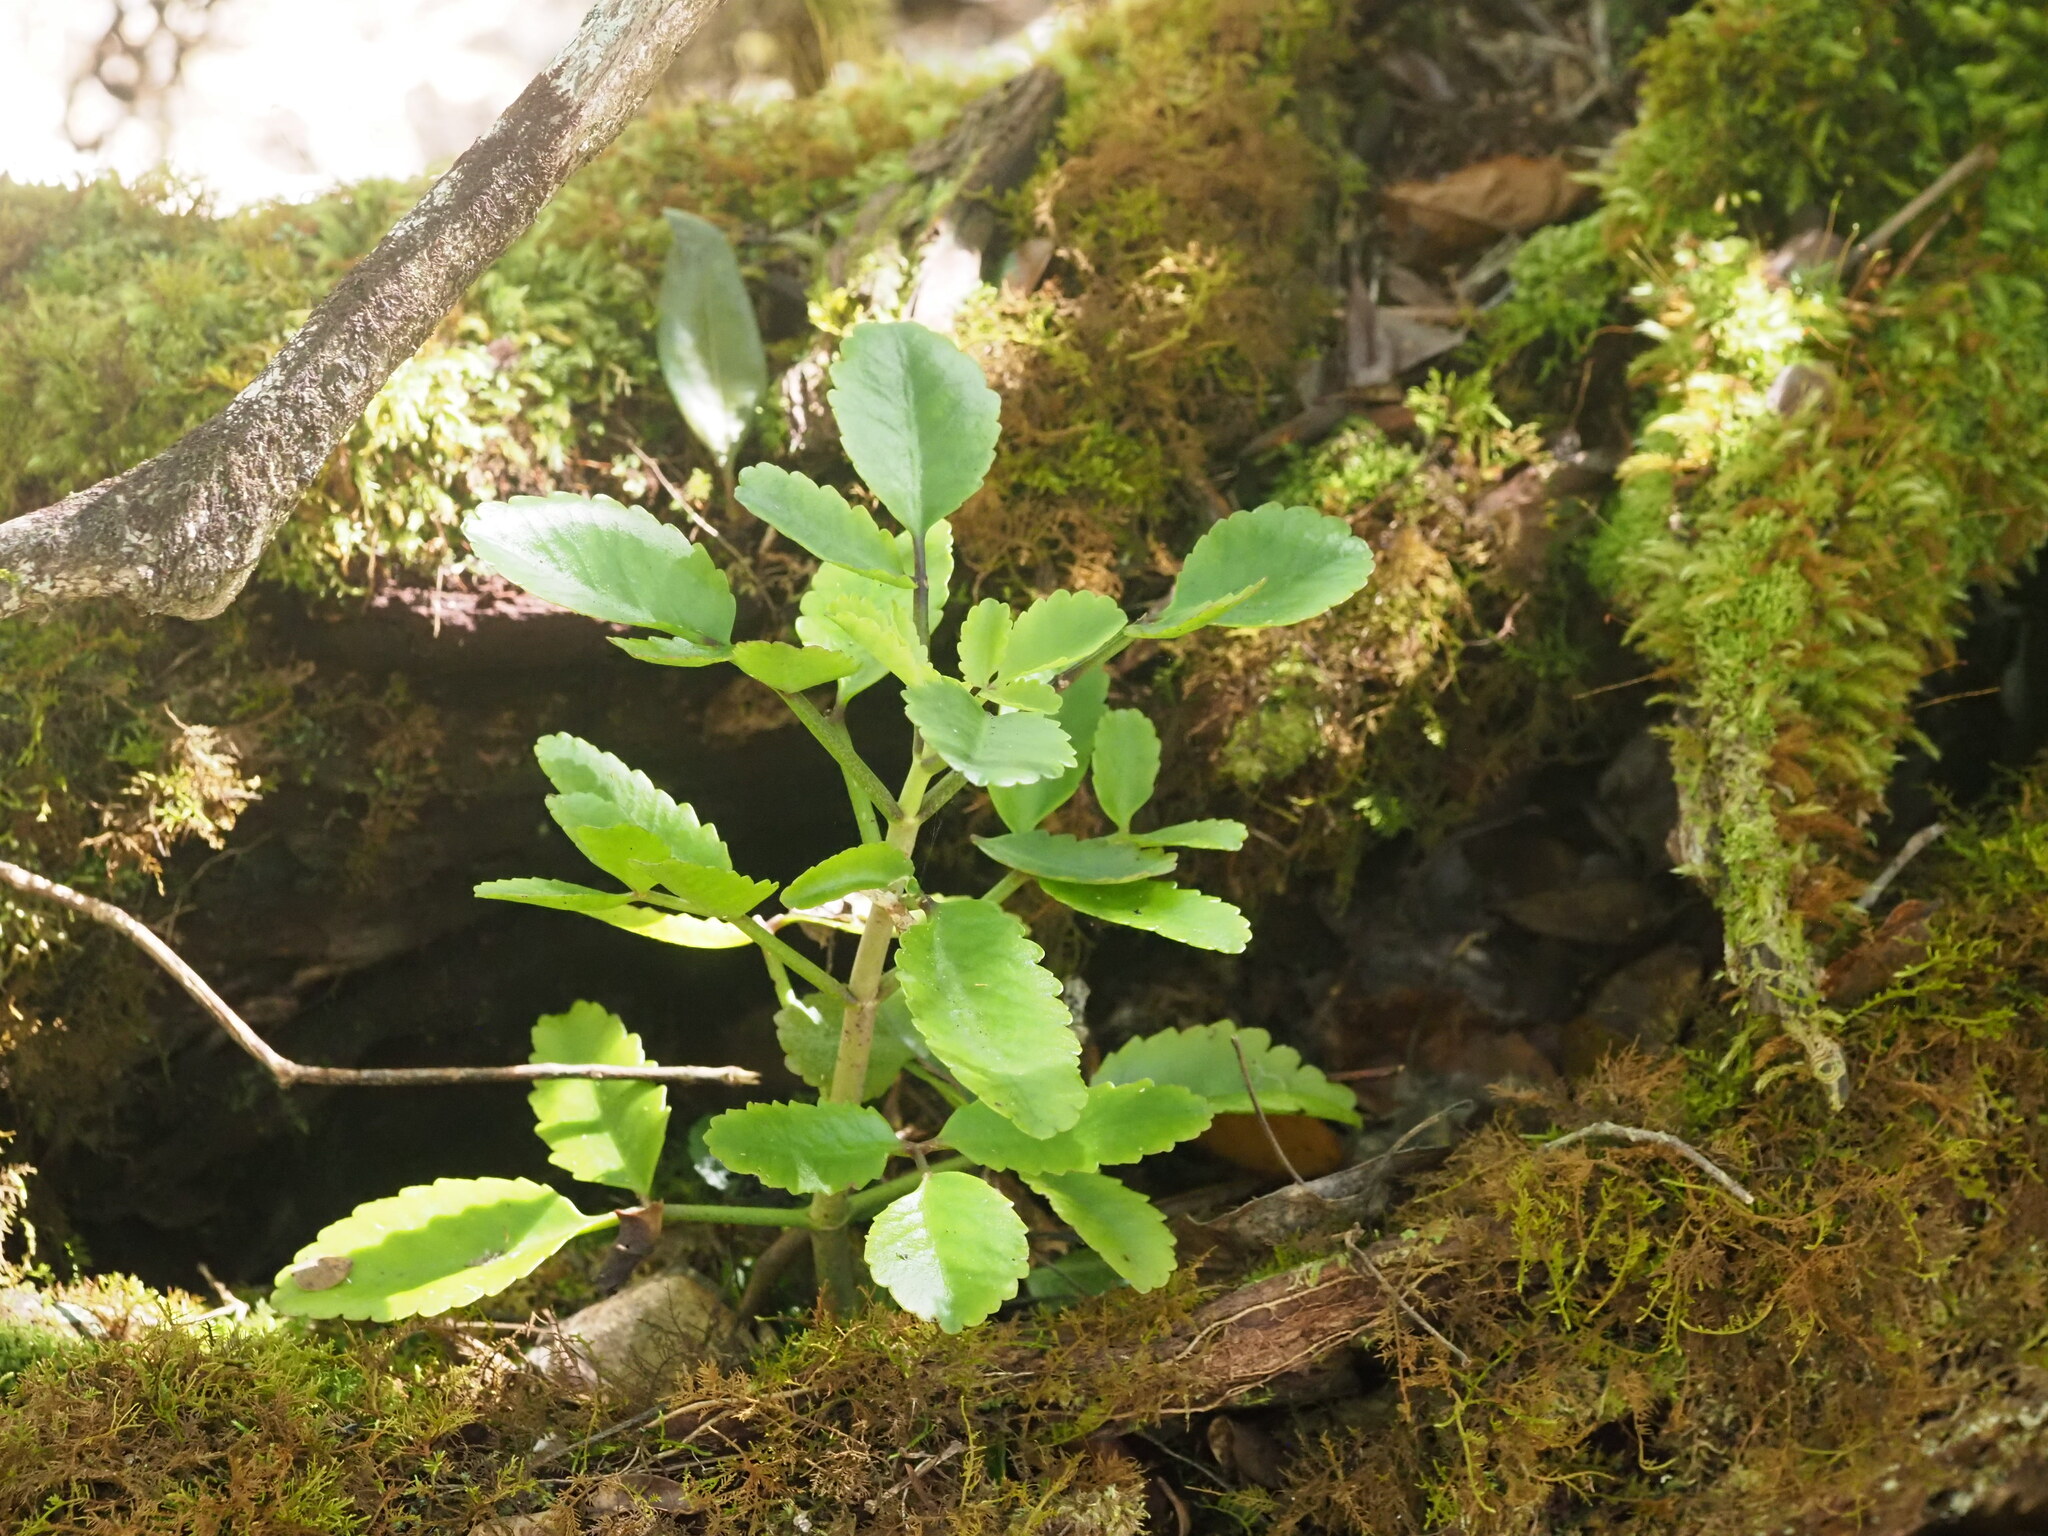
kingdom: Plantae
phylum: Tracheophyta
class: Magnoliopsida
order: Saxifragales
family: Crassulaceae
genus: Kalanchoe
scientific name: Kalanchoe pinnata
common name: Cathedral bells
